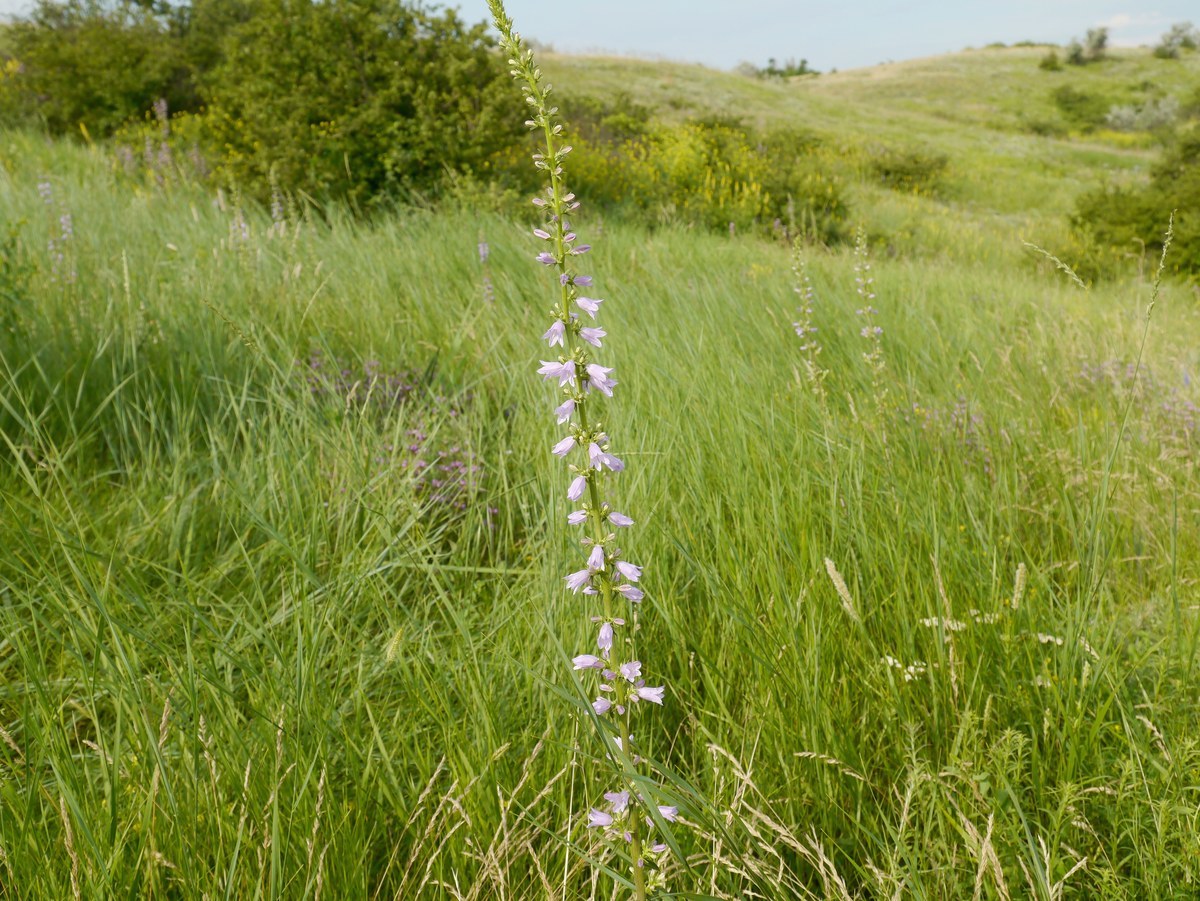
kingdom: Plantae
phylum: Tracheophyta
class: Magnoliopsida
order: Asterales
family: Campanulaceae
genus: Campanula
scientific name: Campanula bononiensis
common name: Pale bellflower
